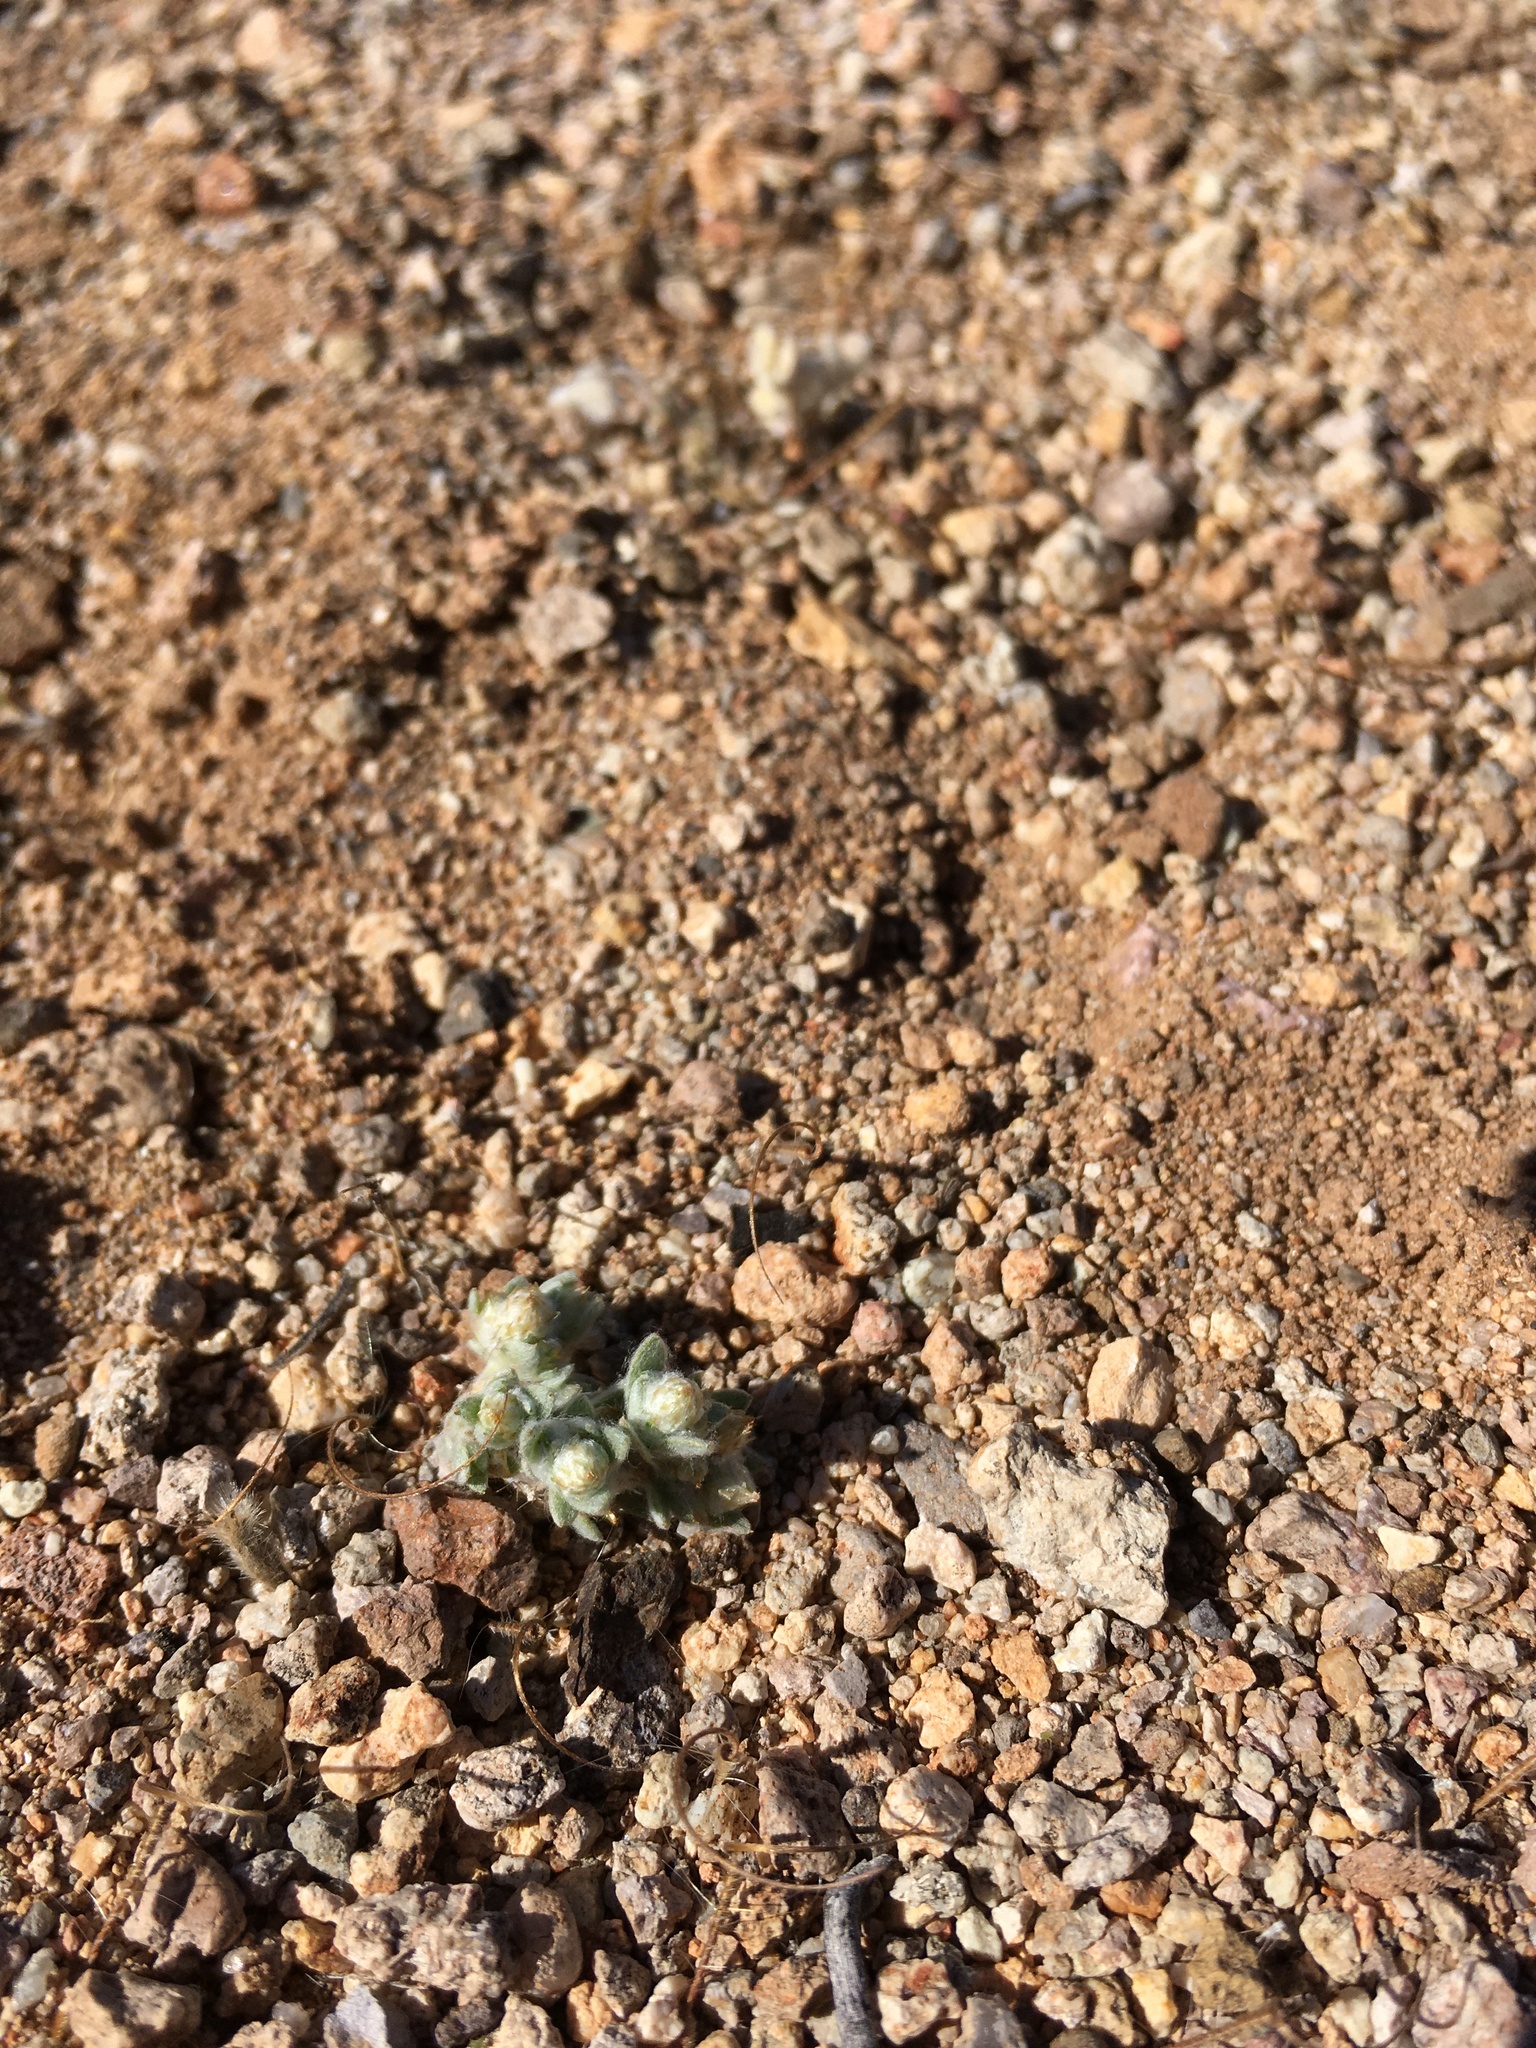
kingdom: Plantae
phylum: Tracheophyta
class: Magnoliopsida
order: Asterales
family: Asteraceae
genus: Stylocline
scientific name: Stylocline sonorensis
